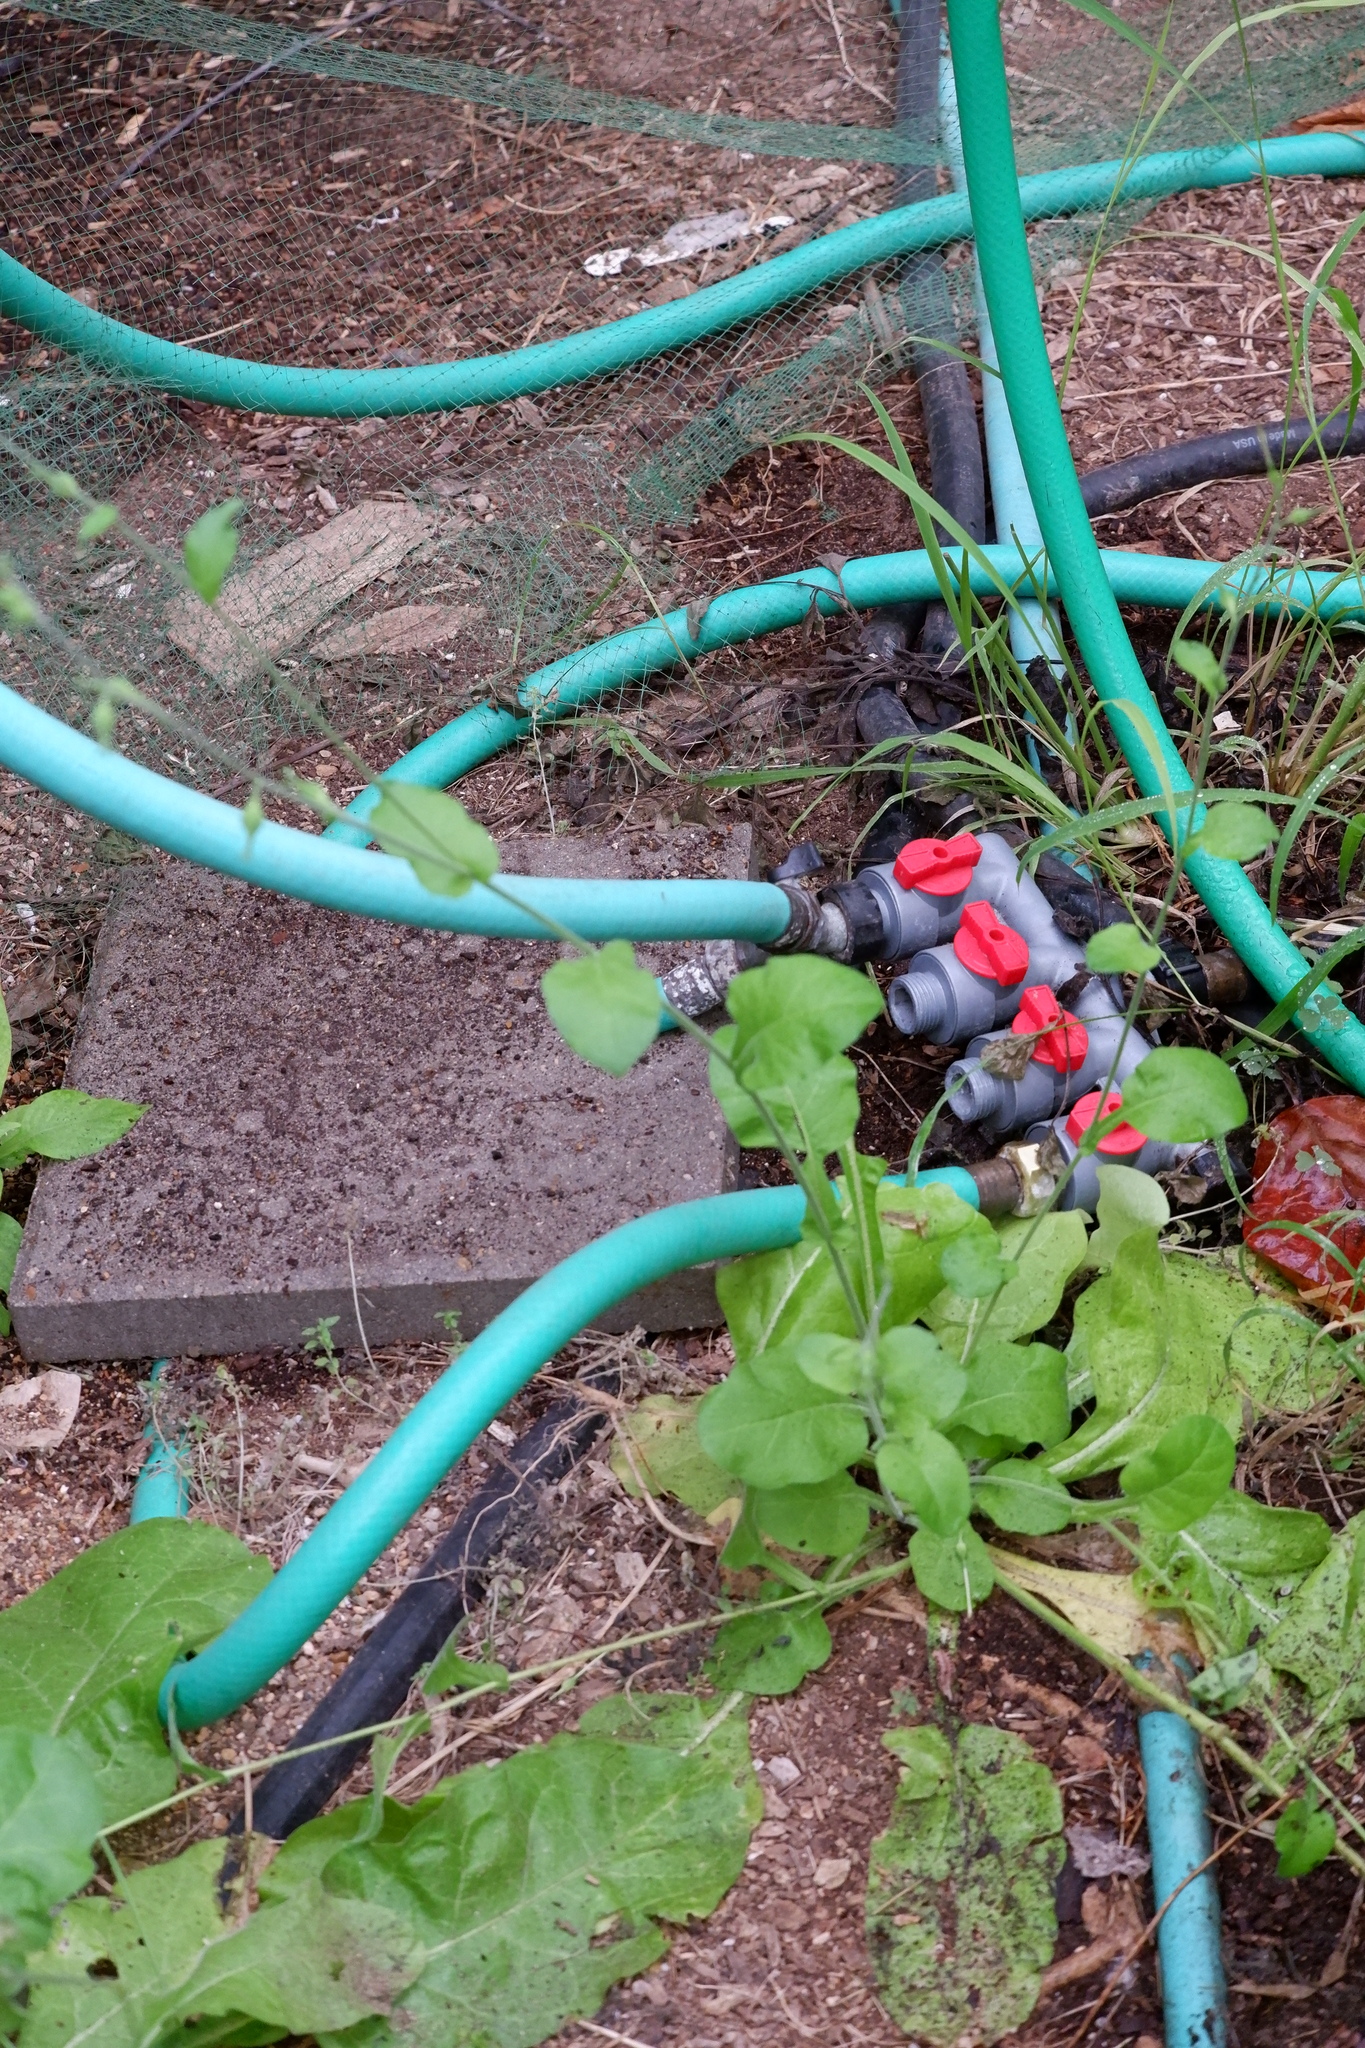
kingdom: Plantae
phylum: Tracheophyta
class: Magnoliopsida
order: Solanales
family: Solanaceae
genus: Nicotiana
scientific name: Nicotiana repanda
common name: Fiddle-leaf tobacco
